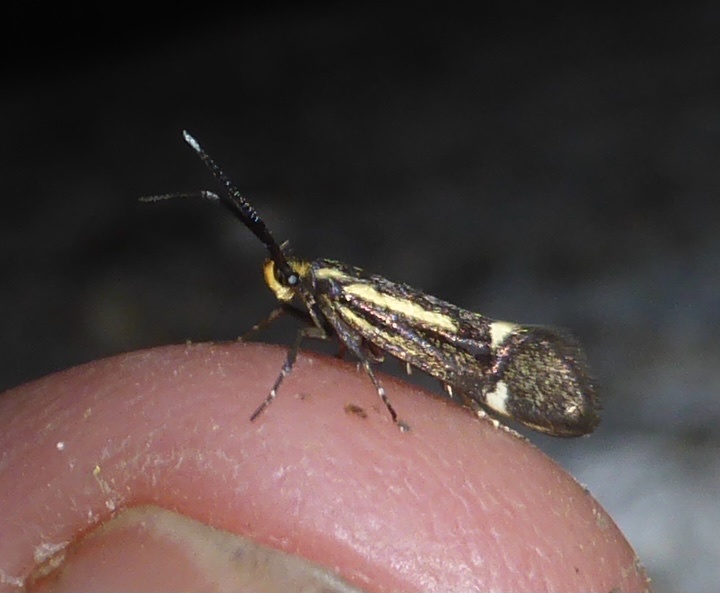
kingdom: Animalia
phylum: Arthropoda
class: Insecta
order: Lepidoptera
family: Oecophoridae
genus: Dafa
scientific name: Dafa Esperia sulphurella
